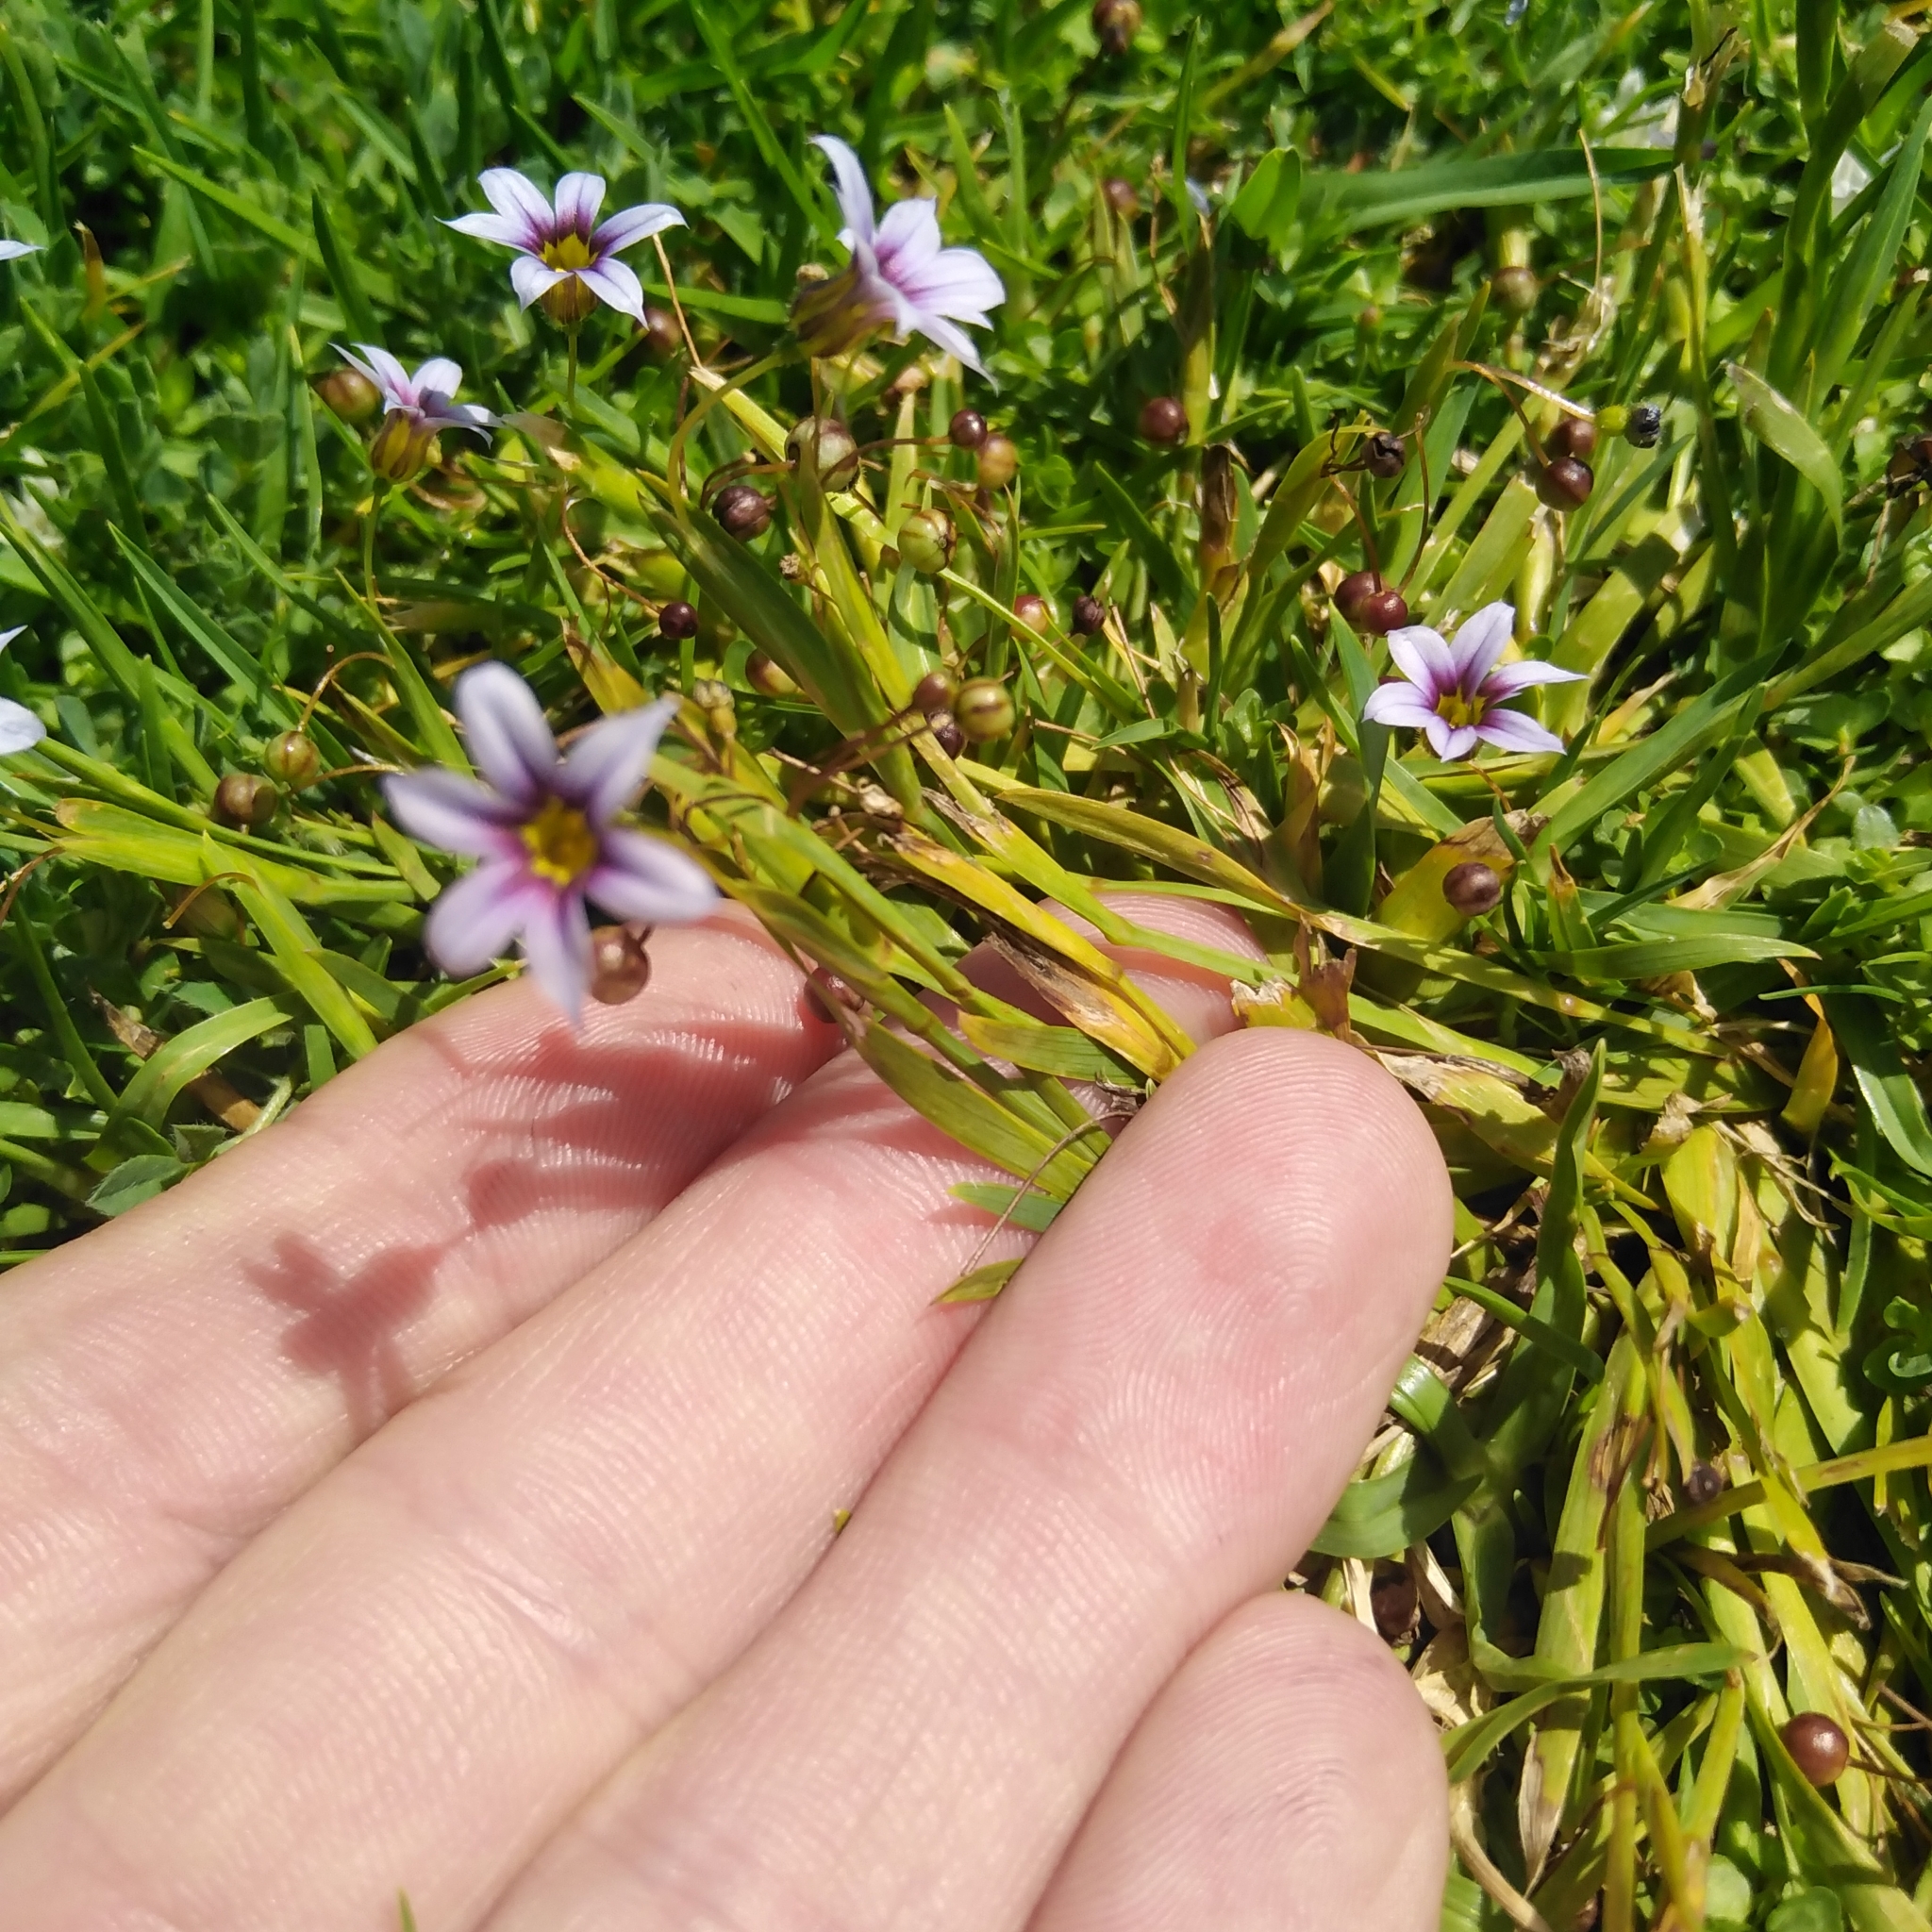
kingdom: Plantae
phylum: Tracheophyta
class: Liliopsida
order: Asparagales
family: Iridaceae
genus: Sisyrinchium
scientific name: Sisyrinchium micranthum
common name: Bermuda pigroot
